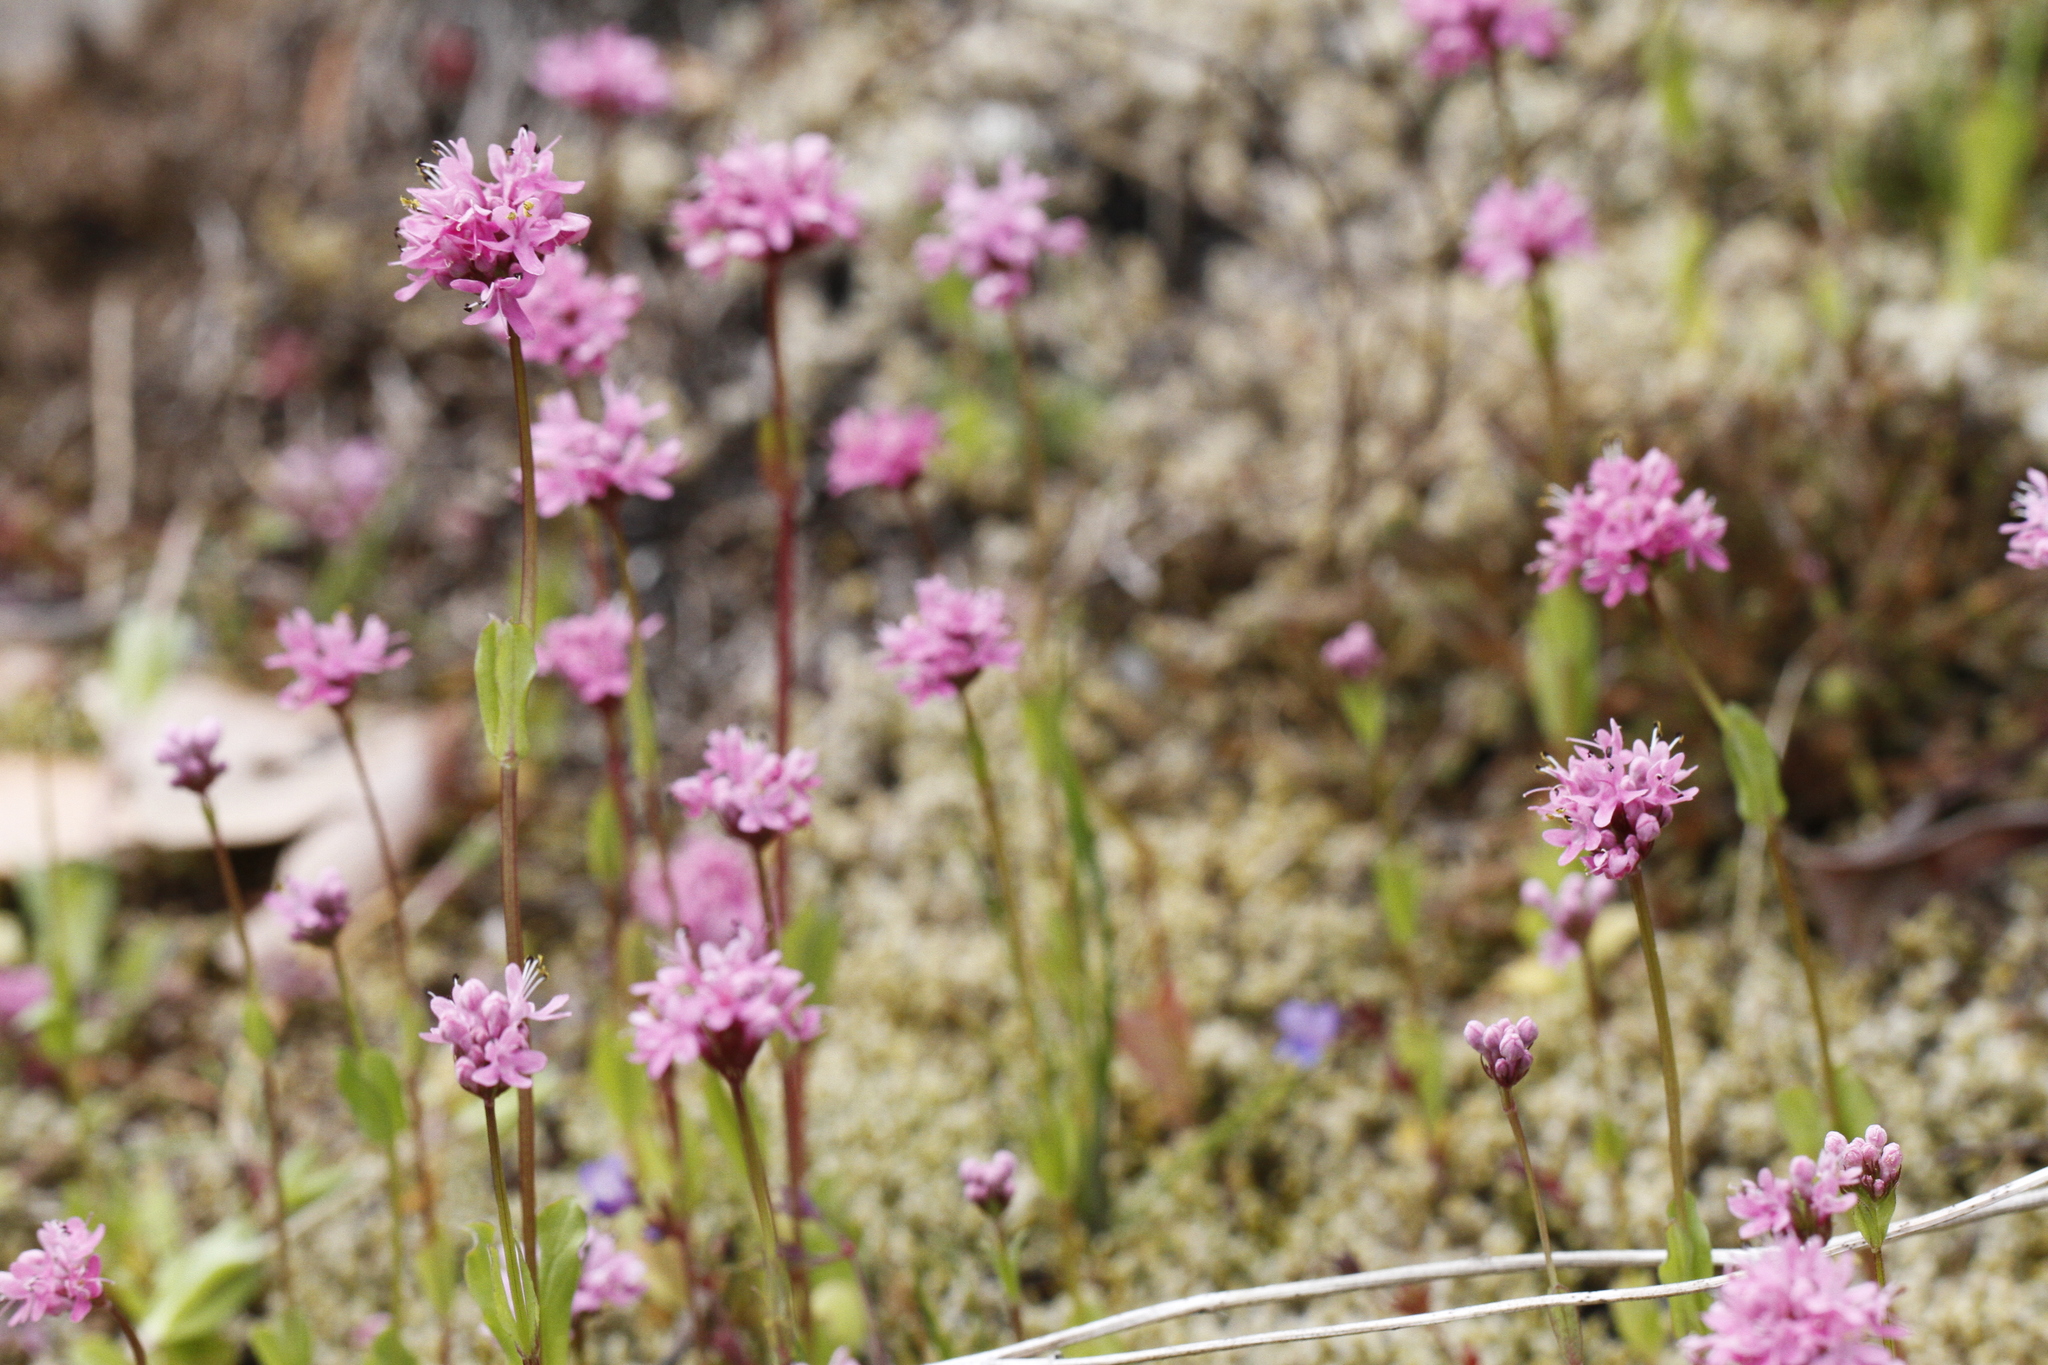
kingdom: Plantae
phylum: Tracheophyta
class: Magnoliopsida
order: Dipsacales
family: Caprifoliaceae
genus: Plectritis
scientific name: Plectritis congesta
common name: Pink plectritis
